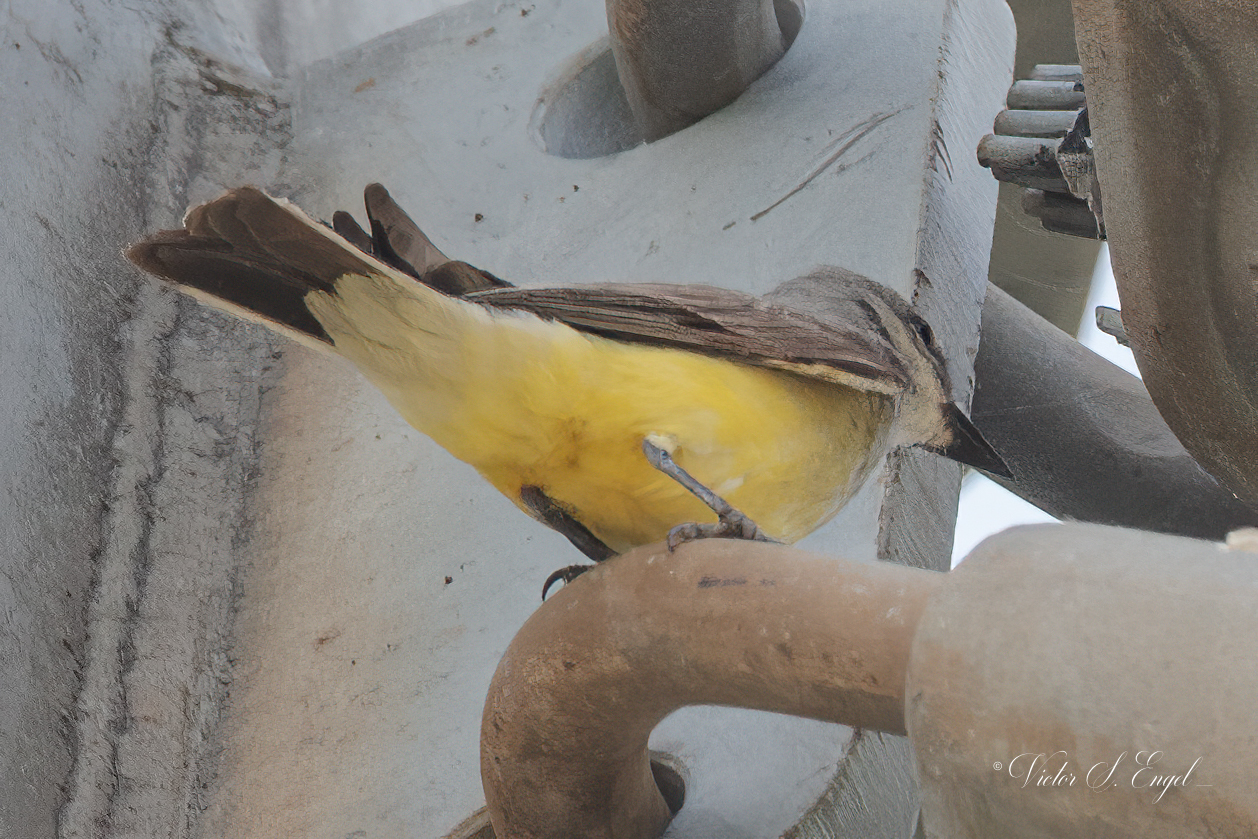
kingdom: Animalia
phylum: Chordata
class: Aves
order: Passeriformes
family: Tyrannidae
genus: Tyrannus
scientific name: Tyrannus verticalis
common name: Western kingbird
